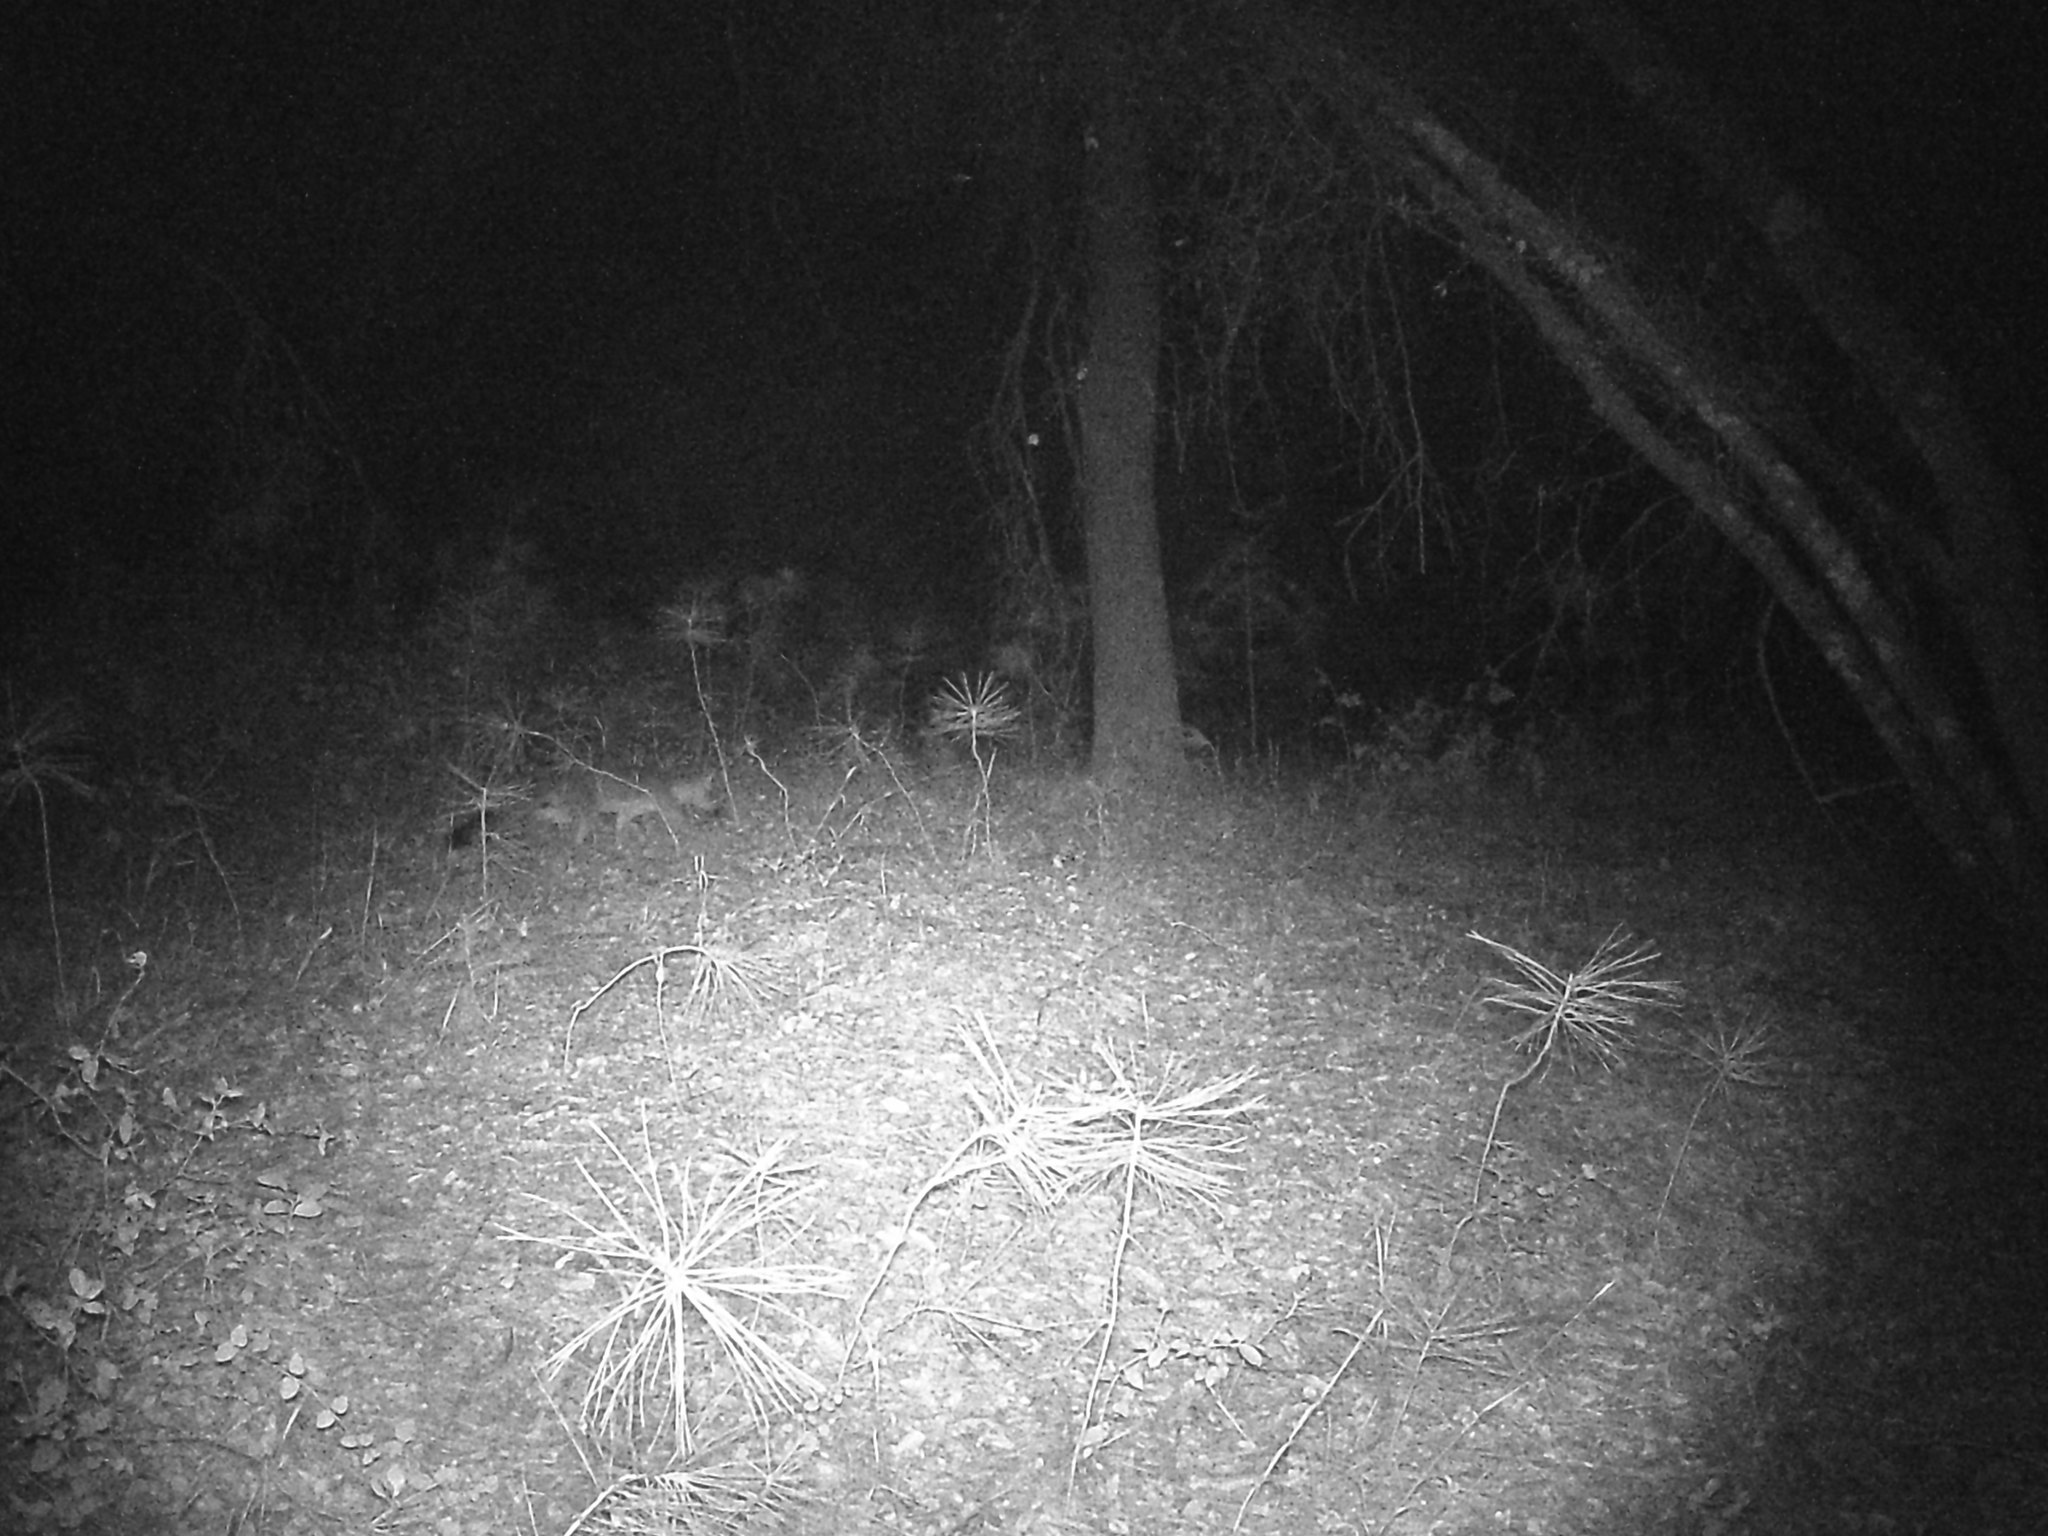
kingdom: Animalia
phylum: Chordata
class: Mammalia
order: Carnivora
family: Canidae
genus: Urocyon
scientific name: Urocyon cinereoargenteus
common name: Gray fox
